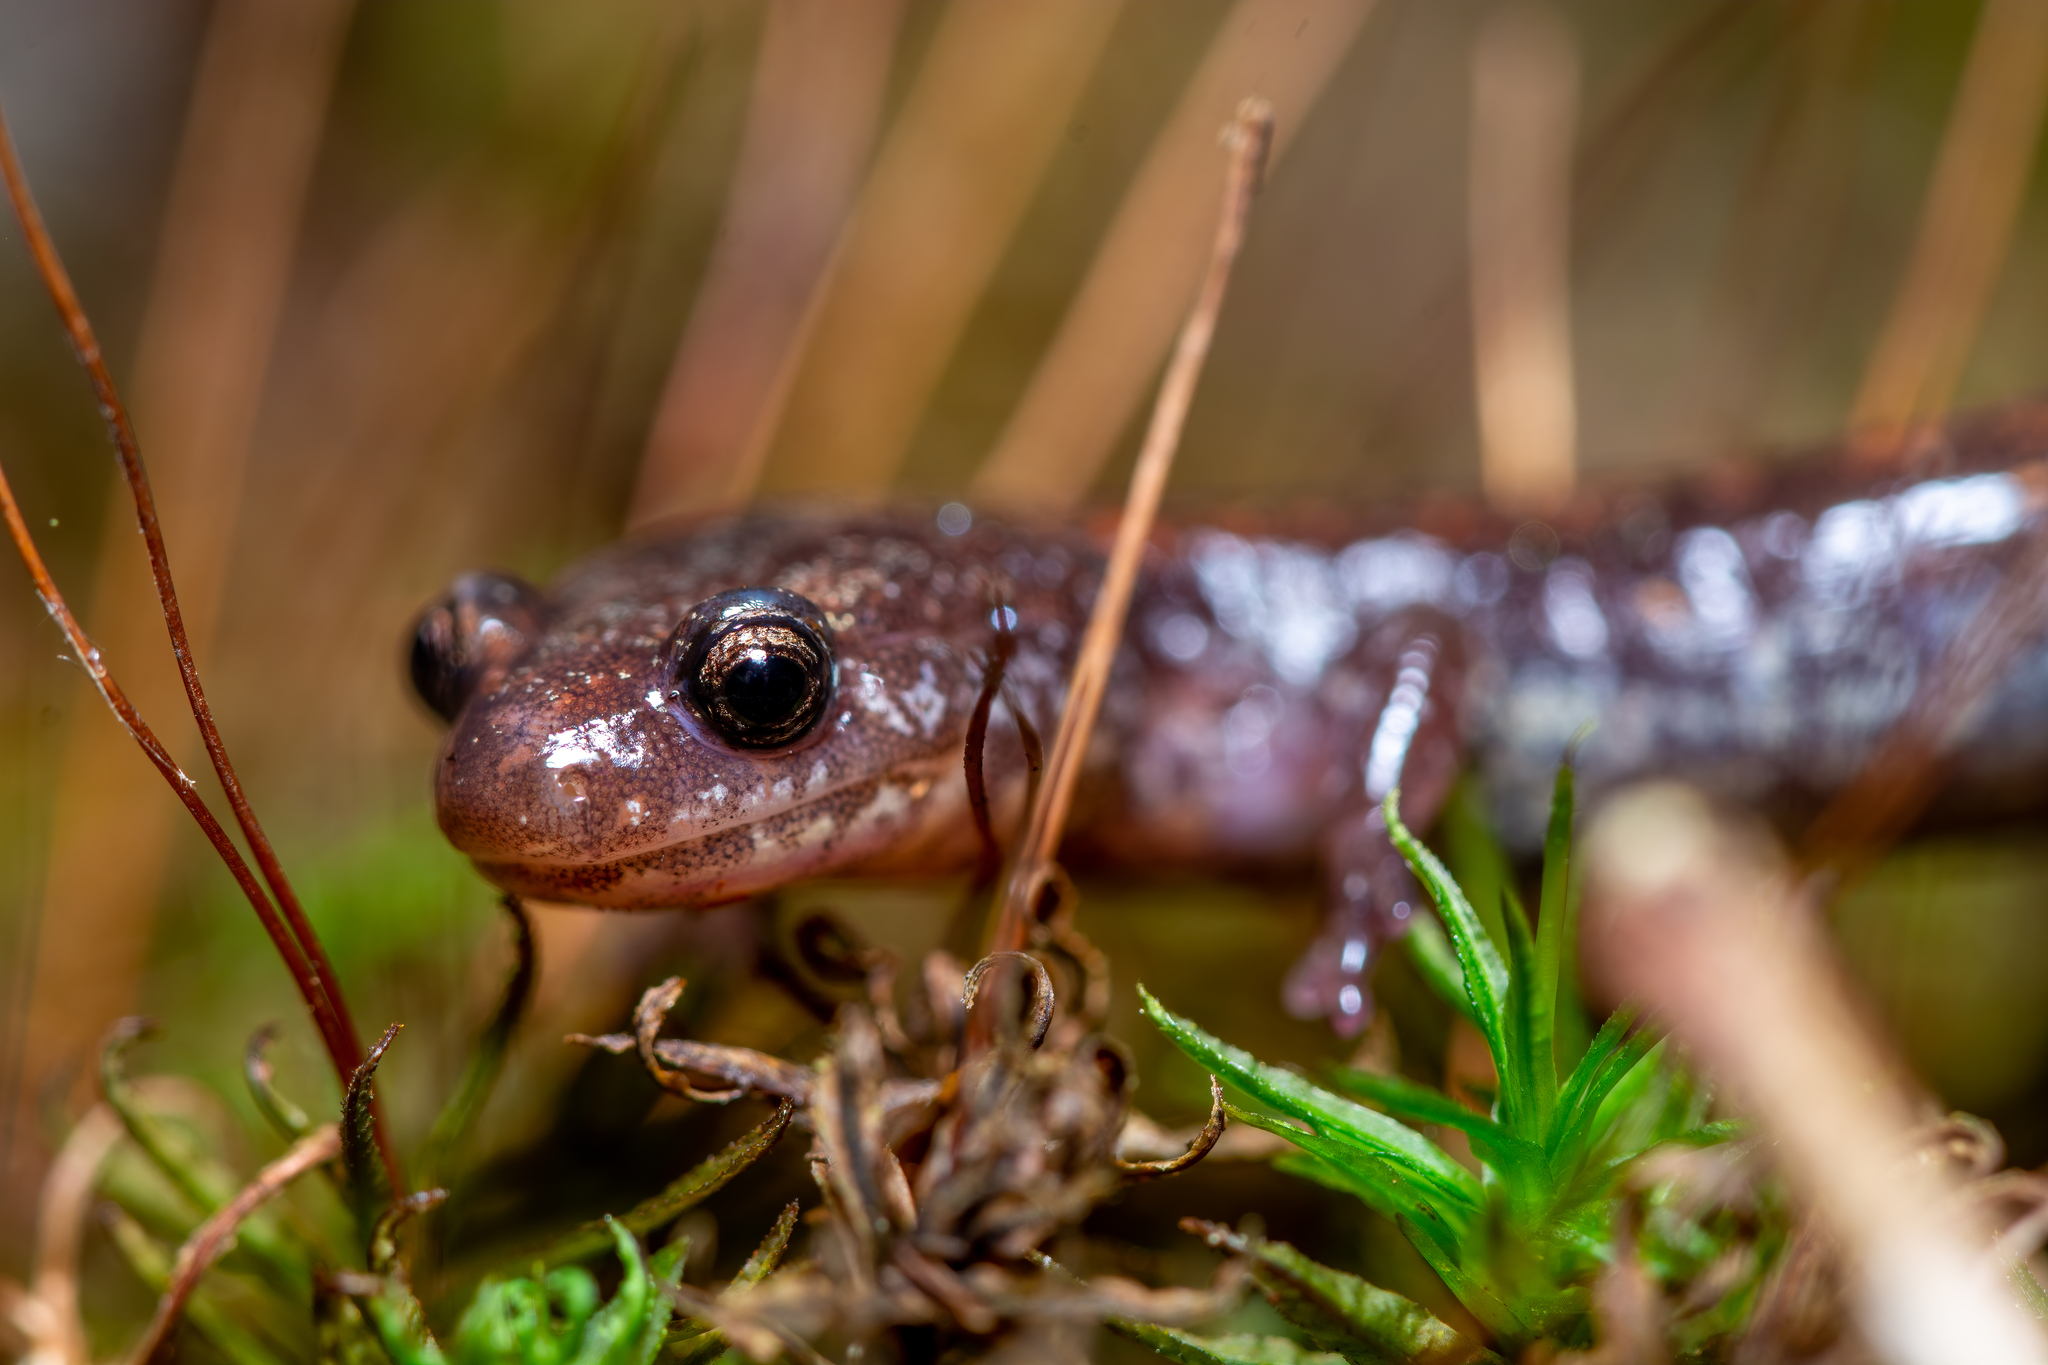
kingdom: Animalia
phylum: Chordata
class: Amphibia
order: Caudata
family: Plethodontidae
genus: Plethodon
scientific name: Plethodon cinereus
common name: Redback salamander
